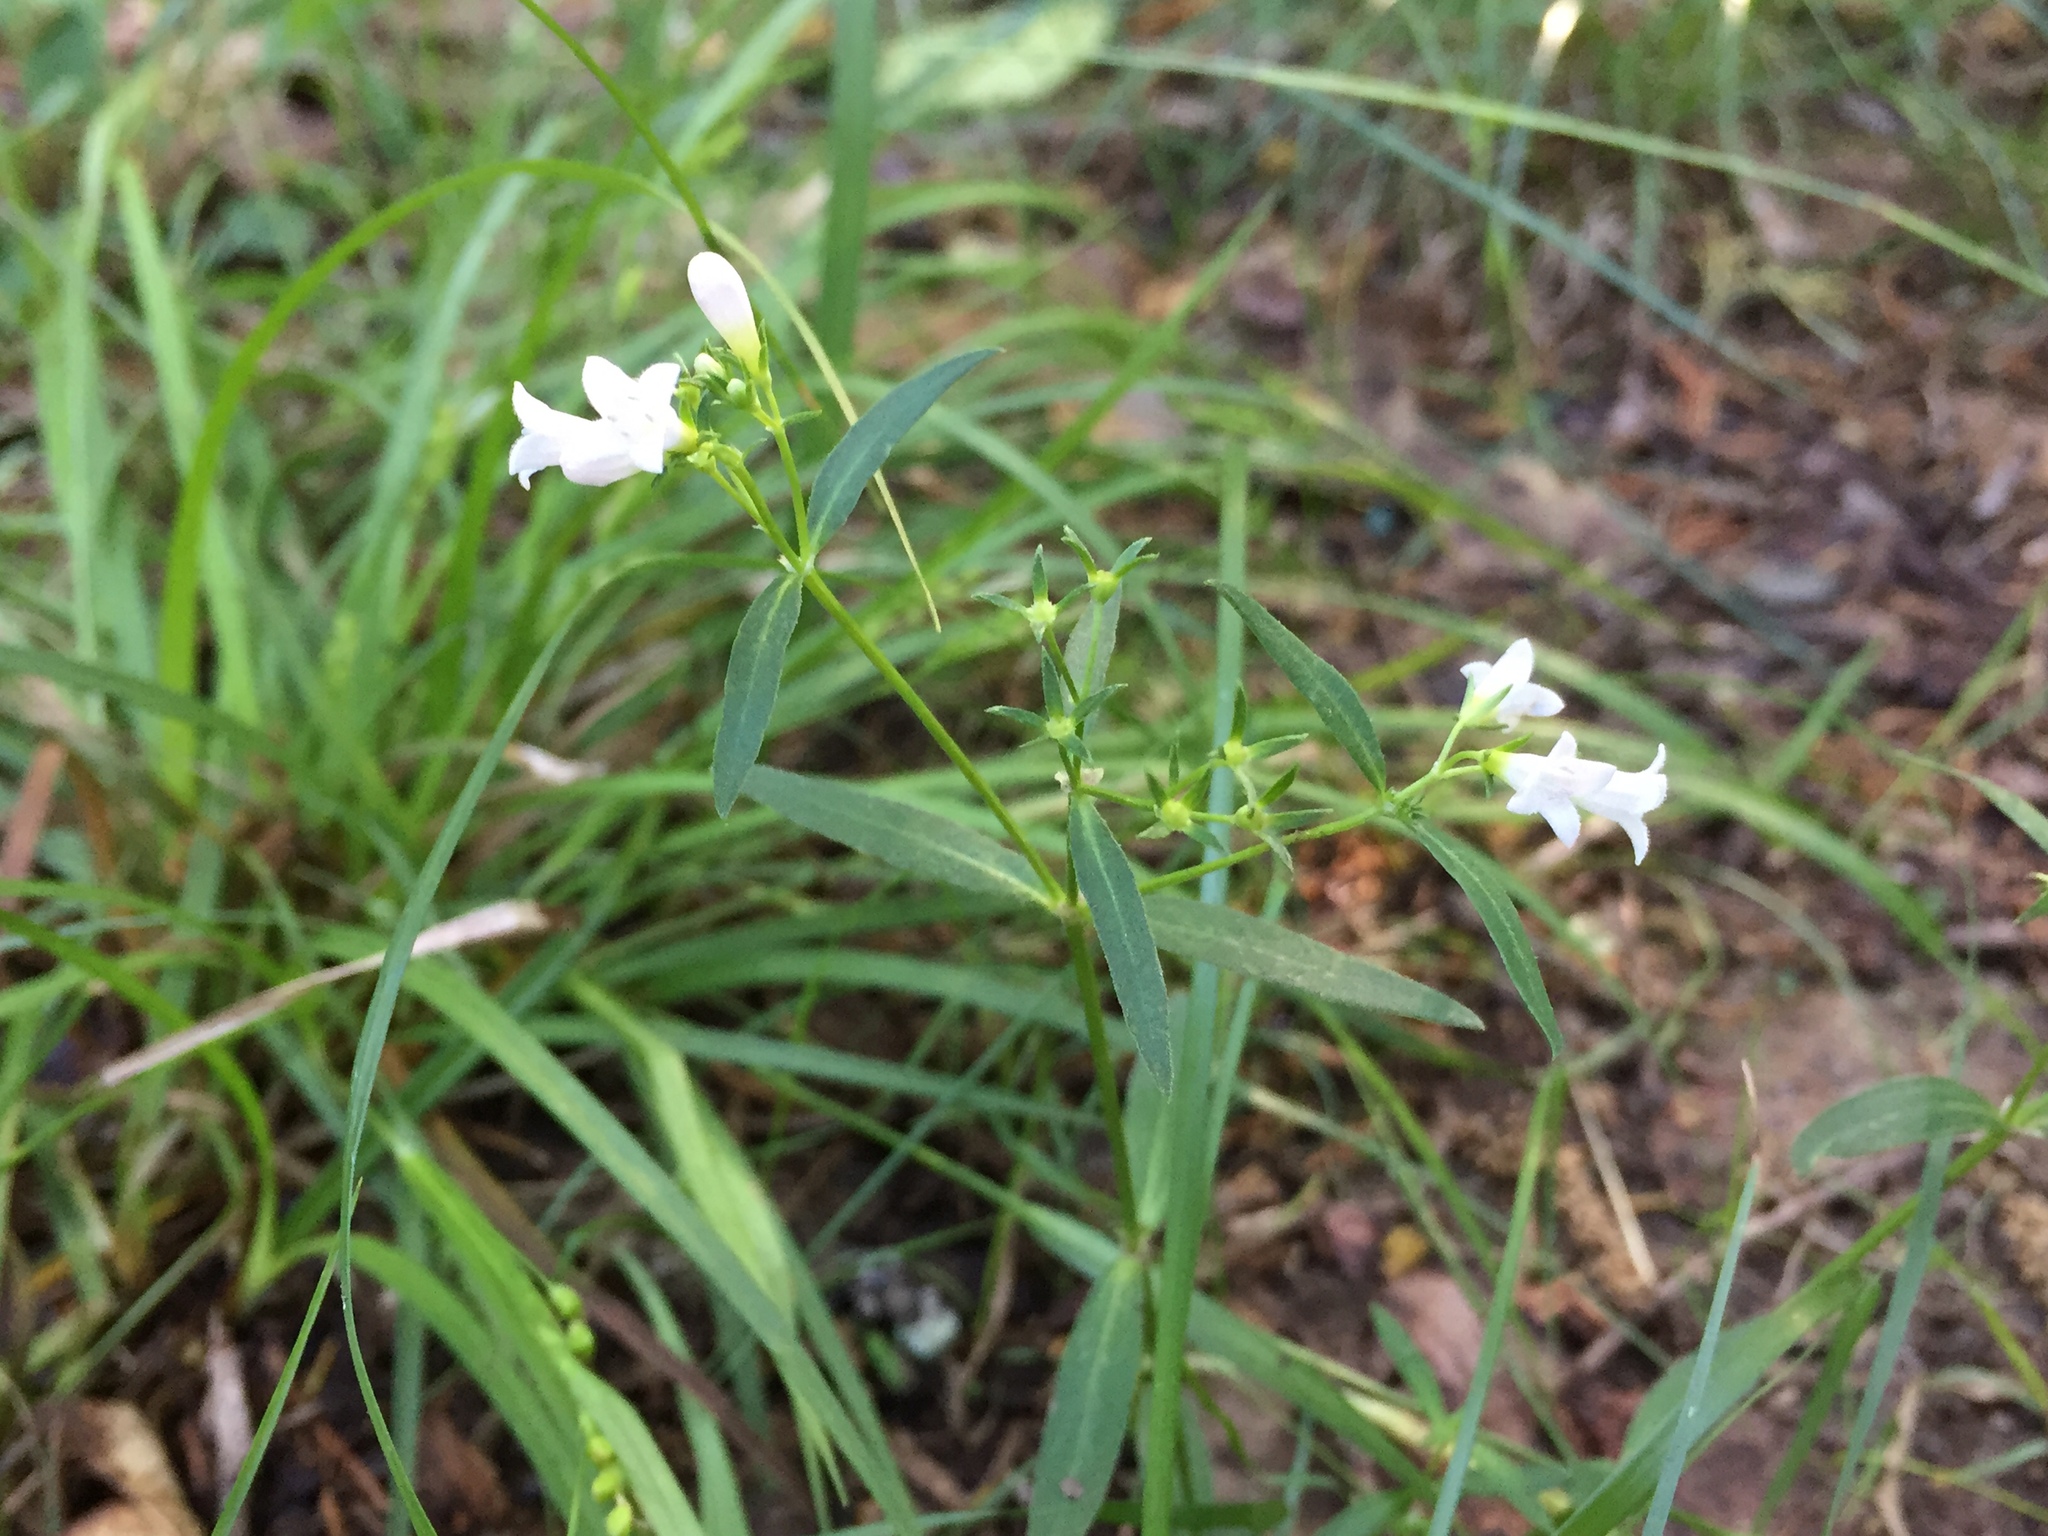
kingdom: Plantae
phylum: Tracheophyta
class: Magnoliopsida
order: Gentianales
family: Rubiaceae
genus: Houstonia
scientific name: Houstonia longifolia
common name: Long-leaved bluets
